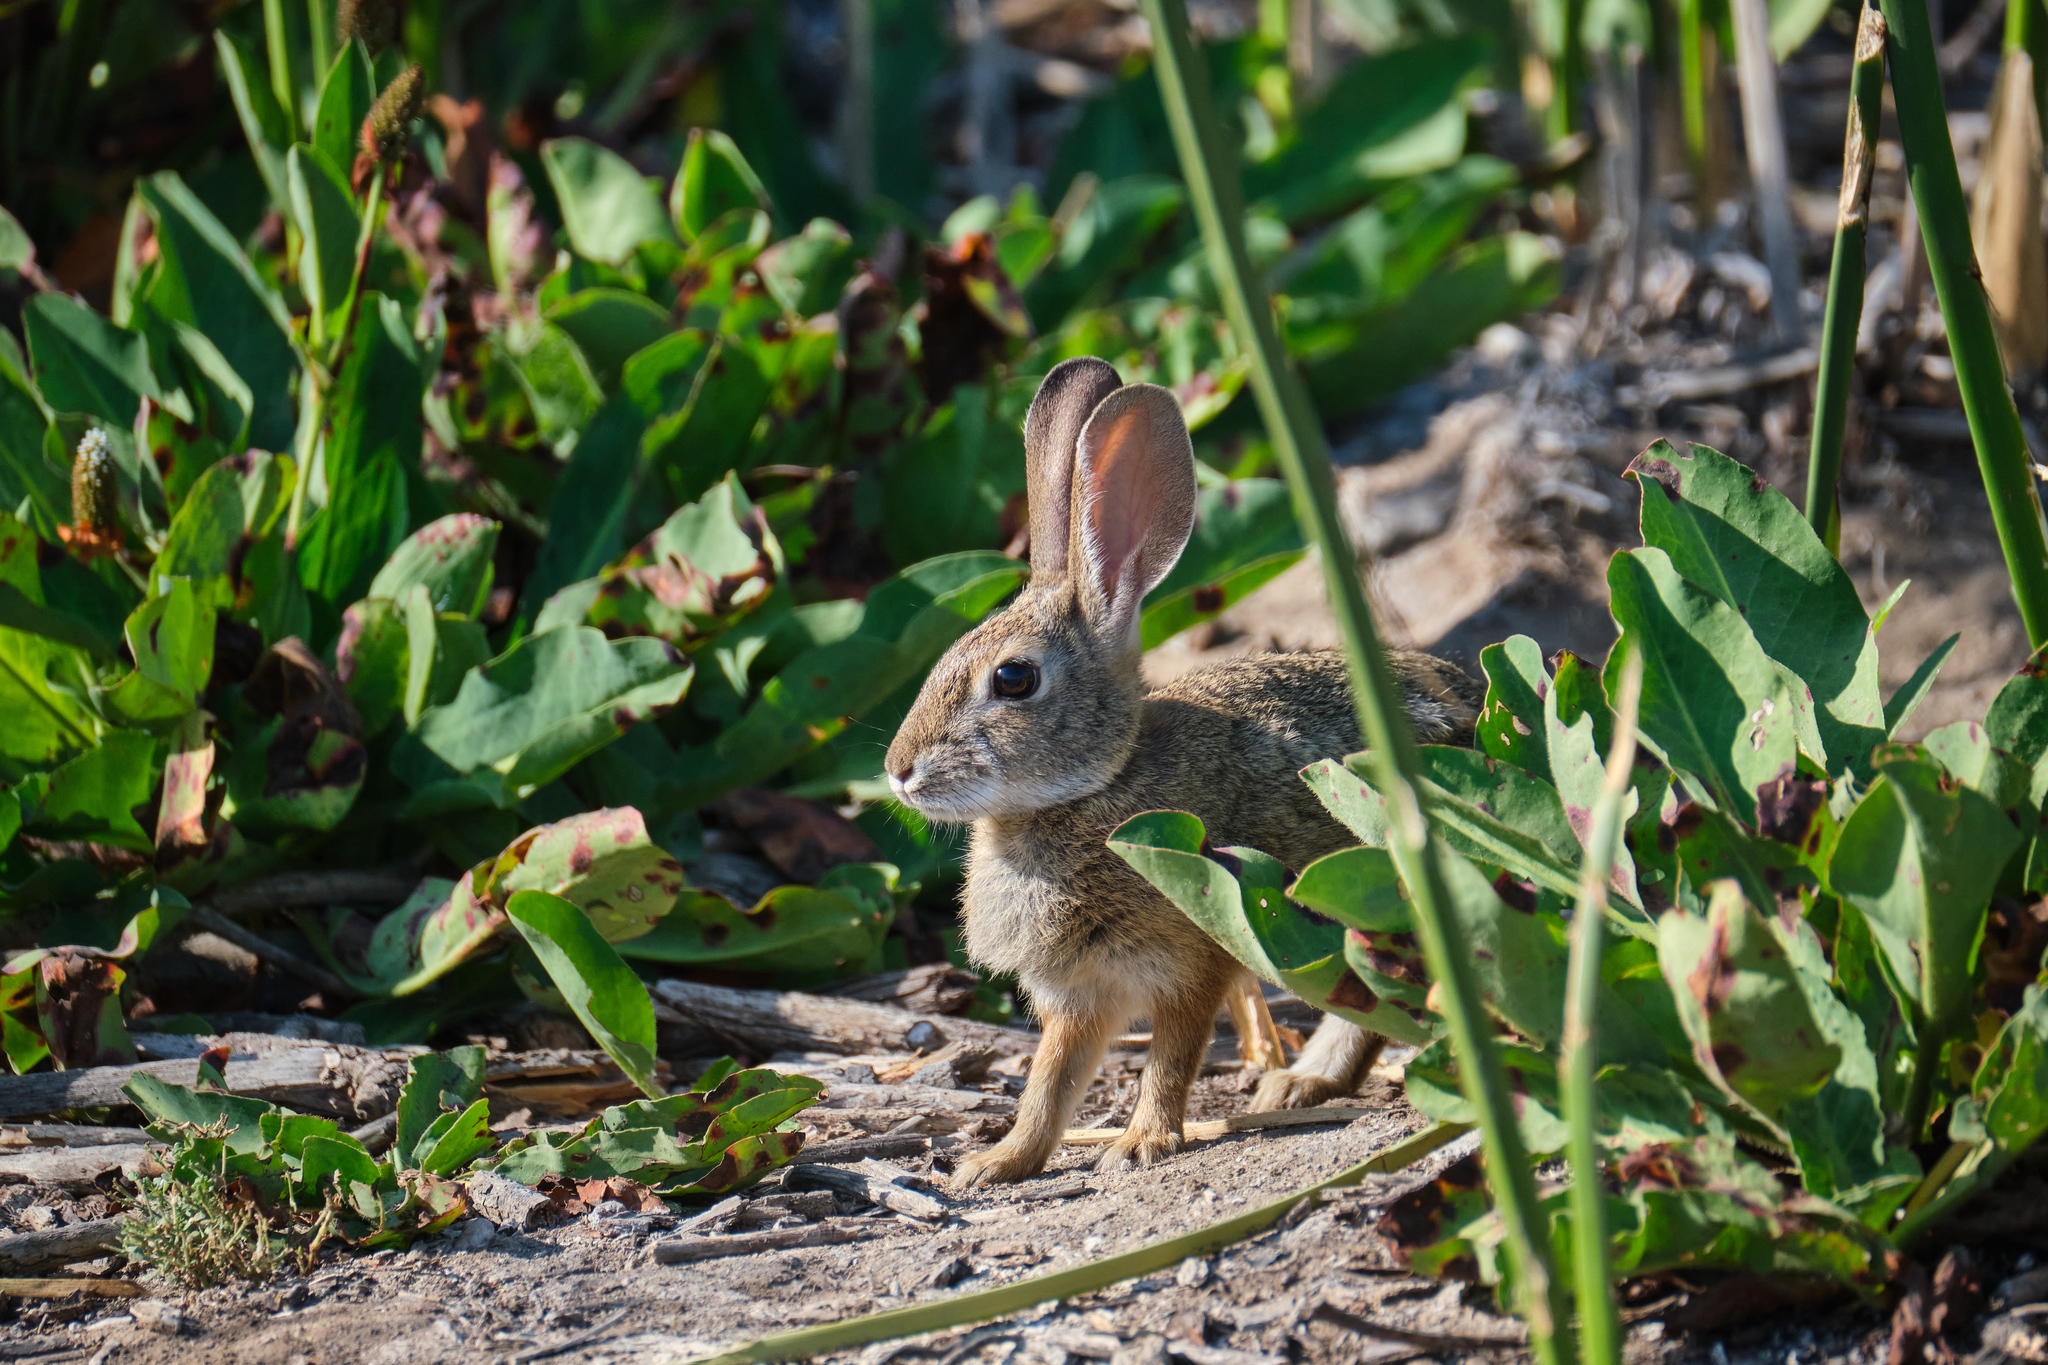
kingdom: Animalia
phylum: Chordata
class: Mammalia
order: Lagomorpha
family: Leporidae
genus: Sylvilagus
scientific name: Sylvilagus audubonii
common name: Desert cottontail
